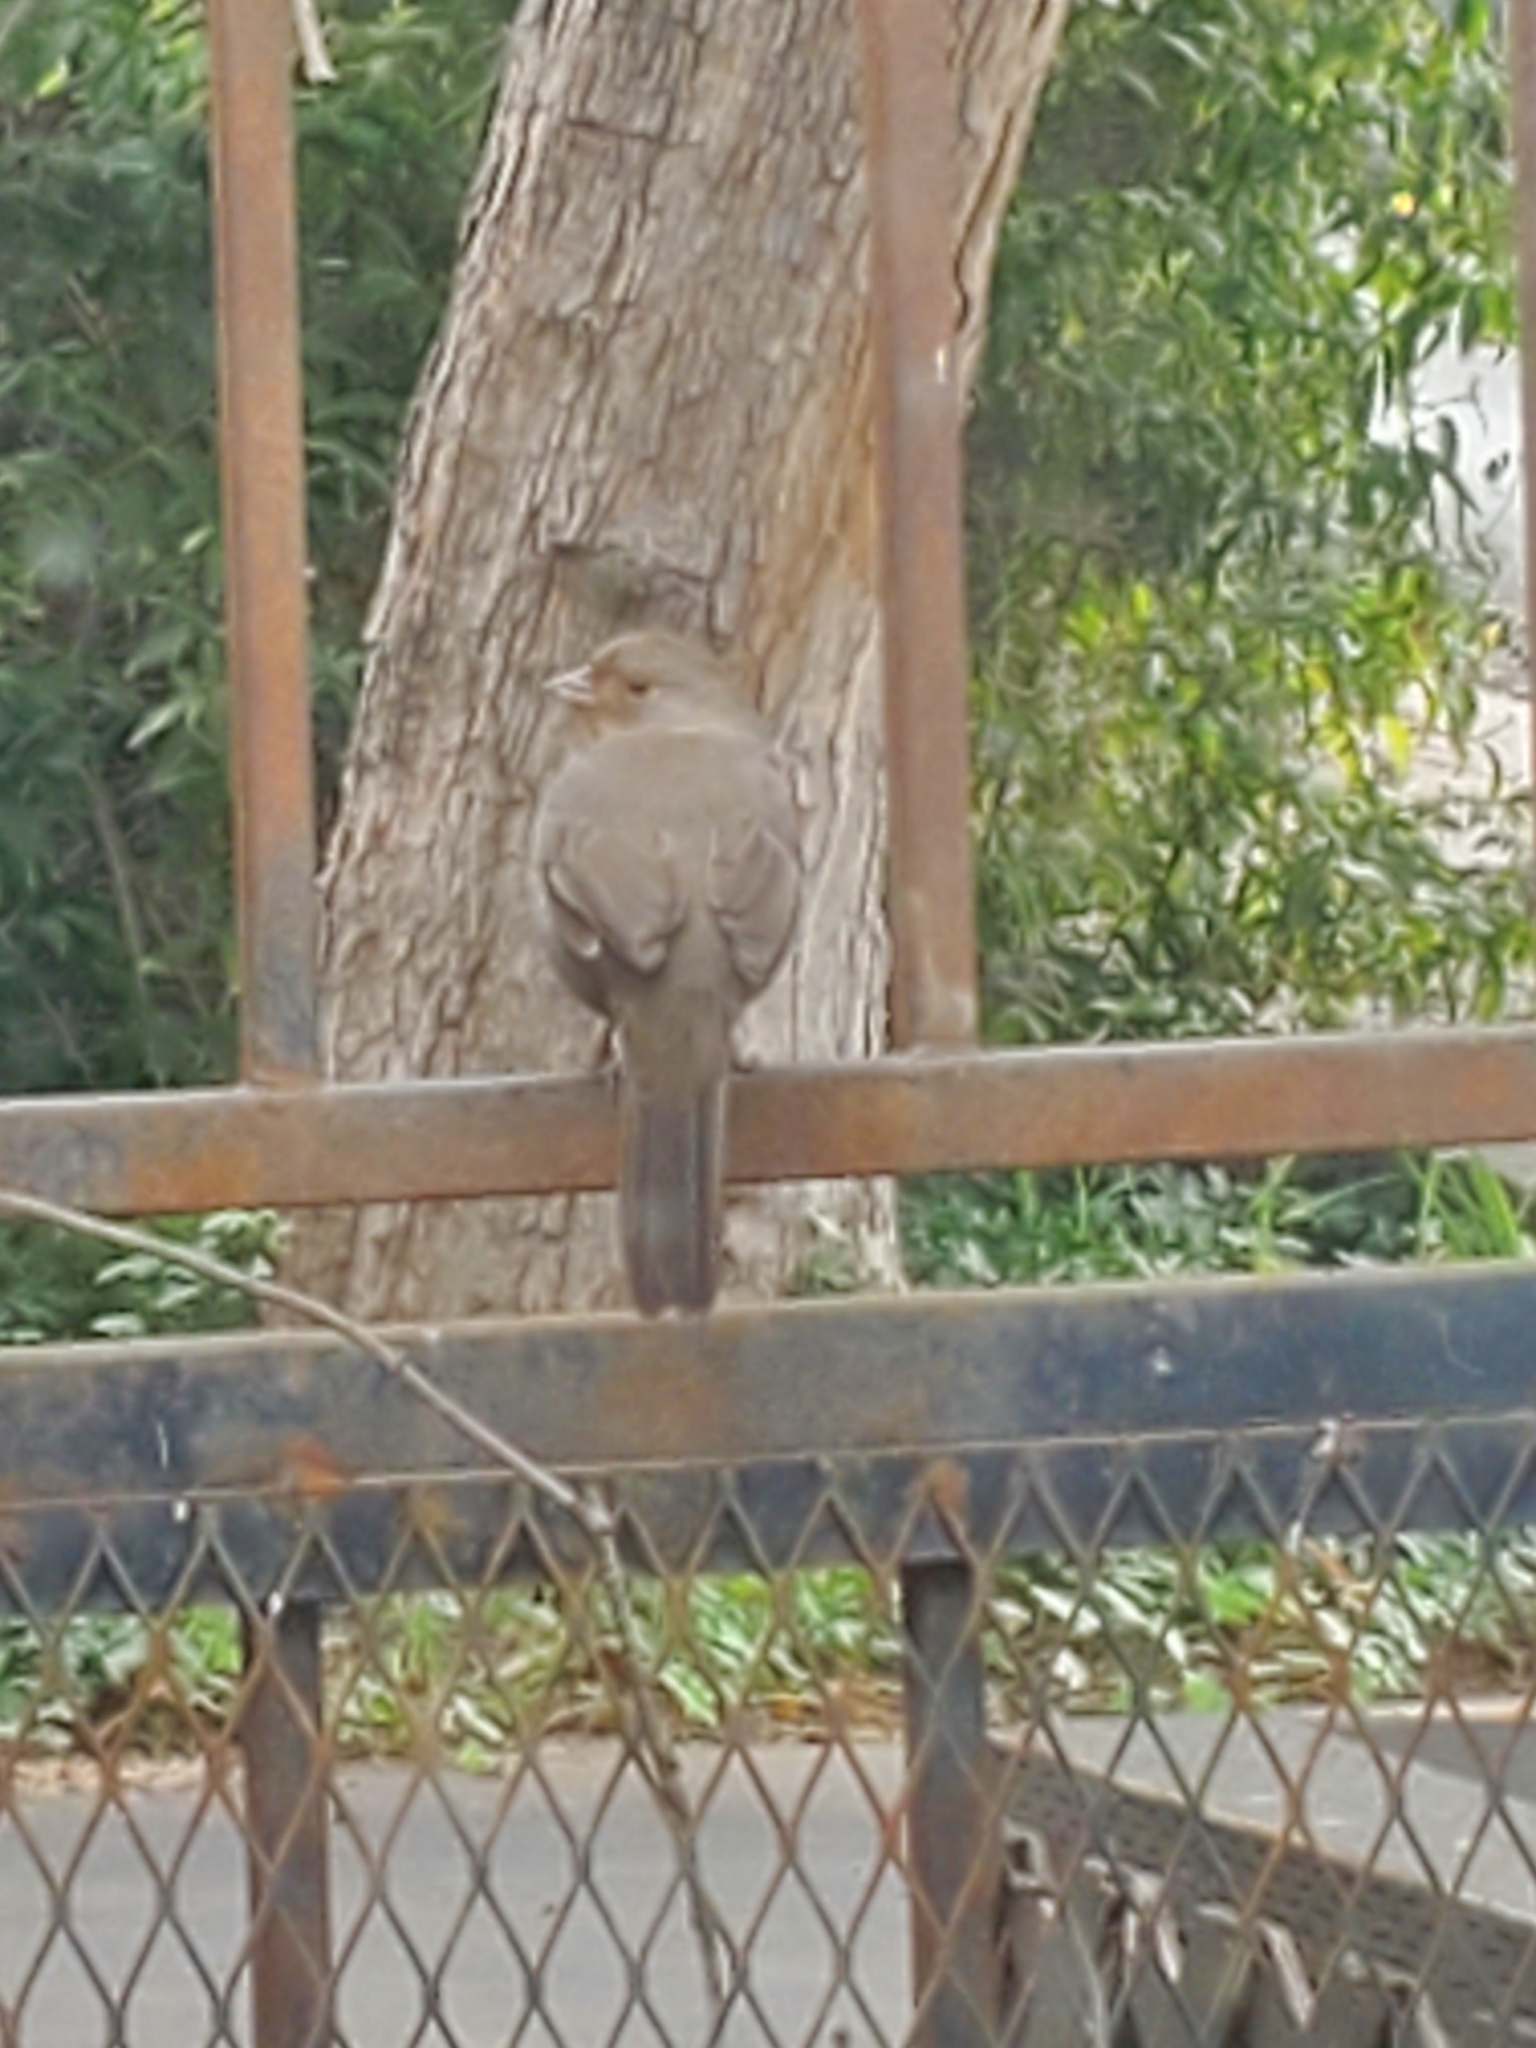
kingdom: Animalia
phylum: Chordata
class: Aves
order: Passeriformes
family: Passerellidae
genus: Melozone
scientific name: Melozone crissalis
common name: California towhee
